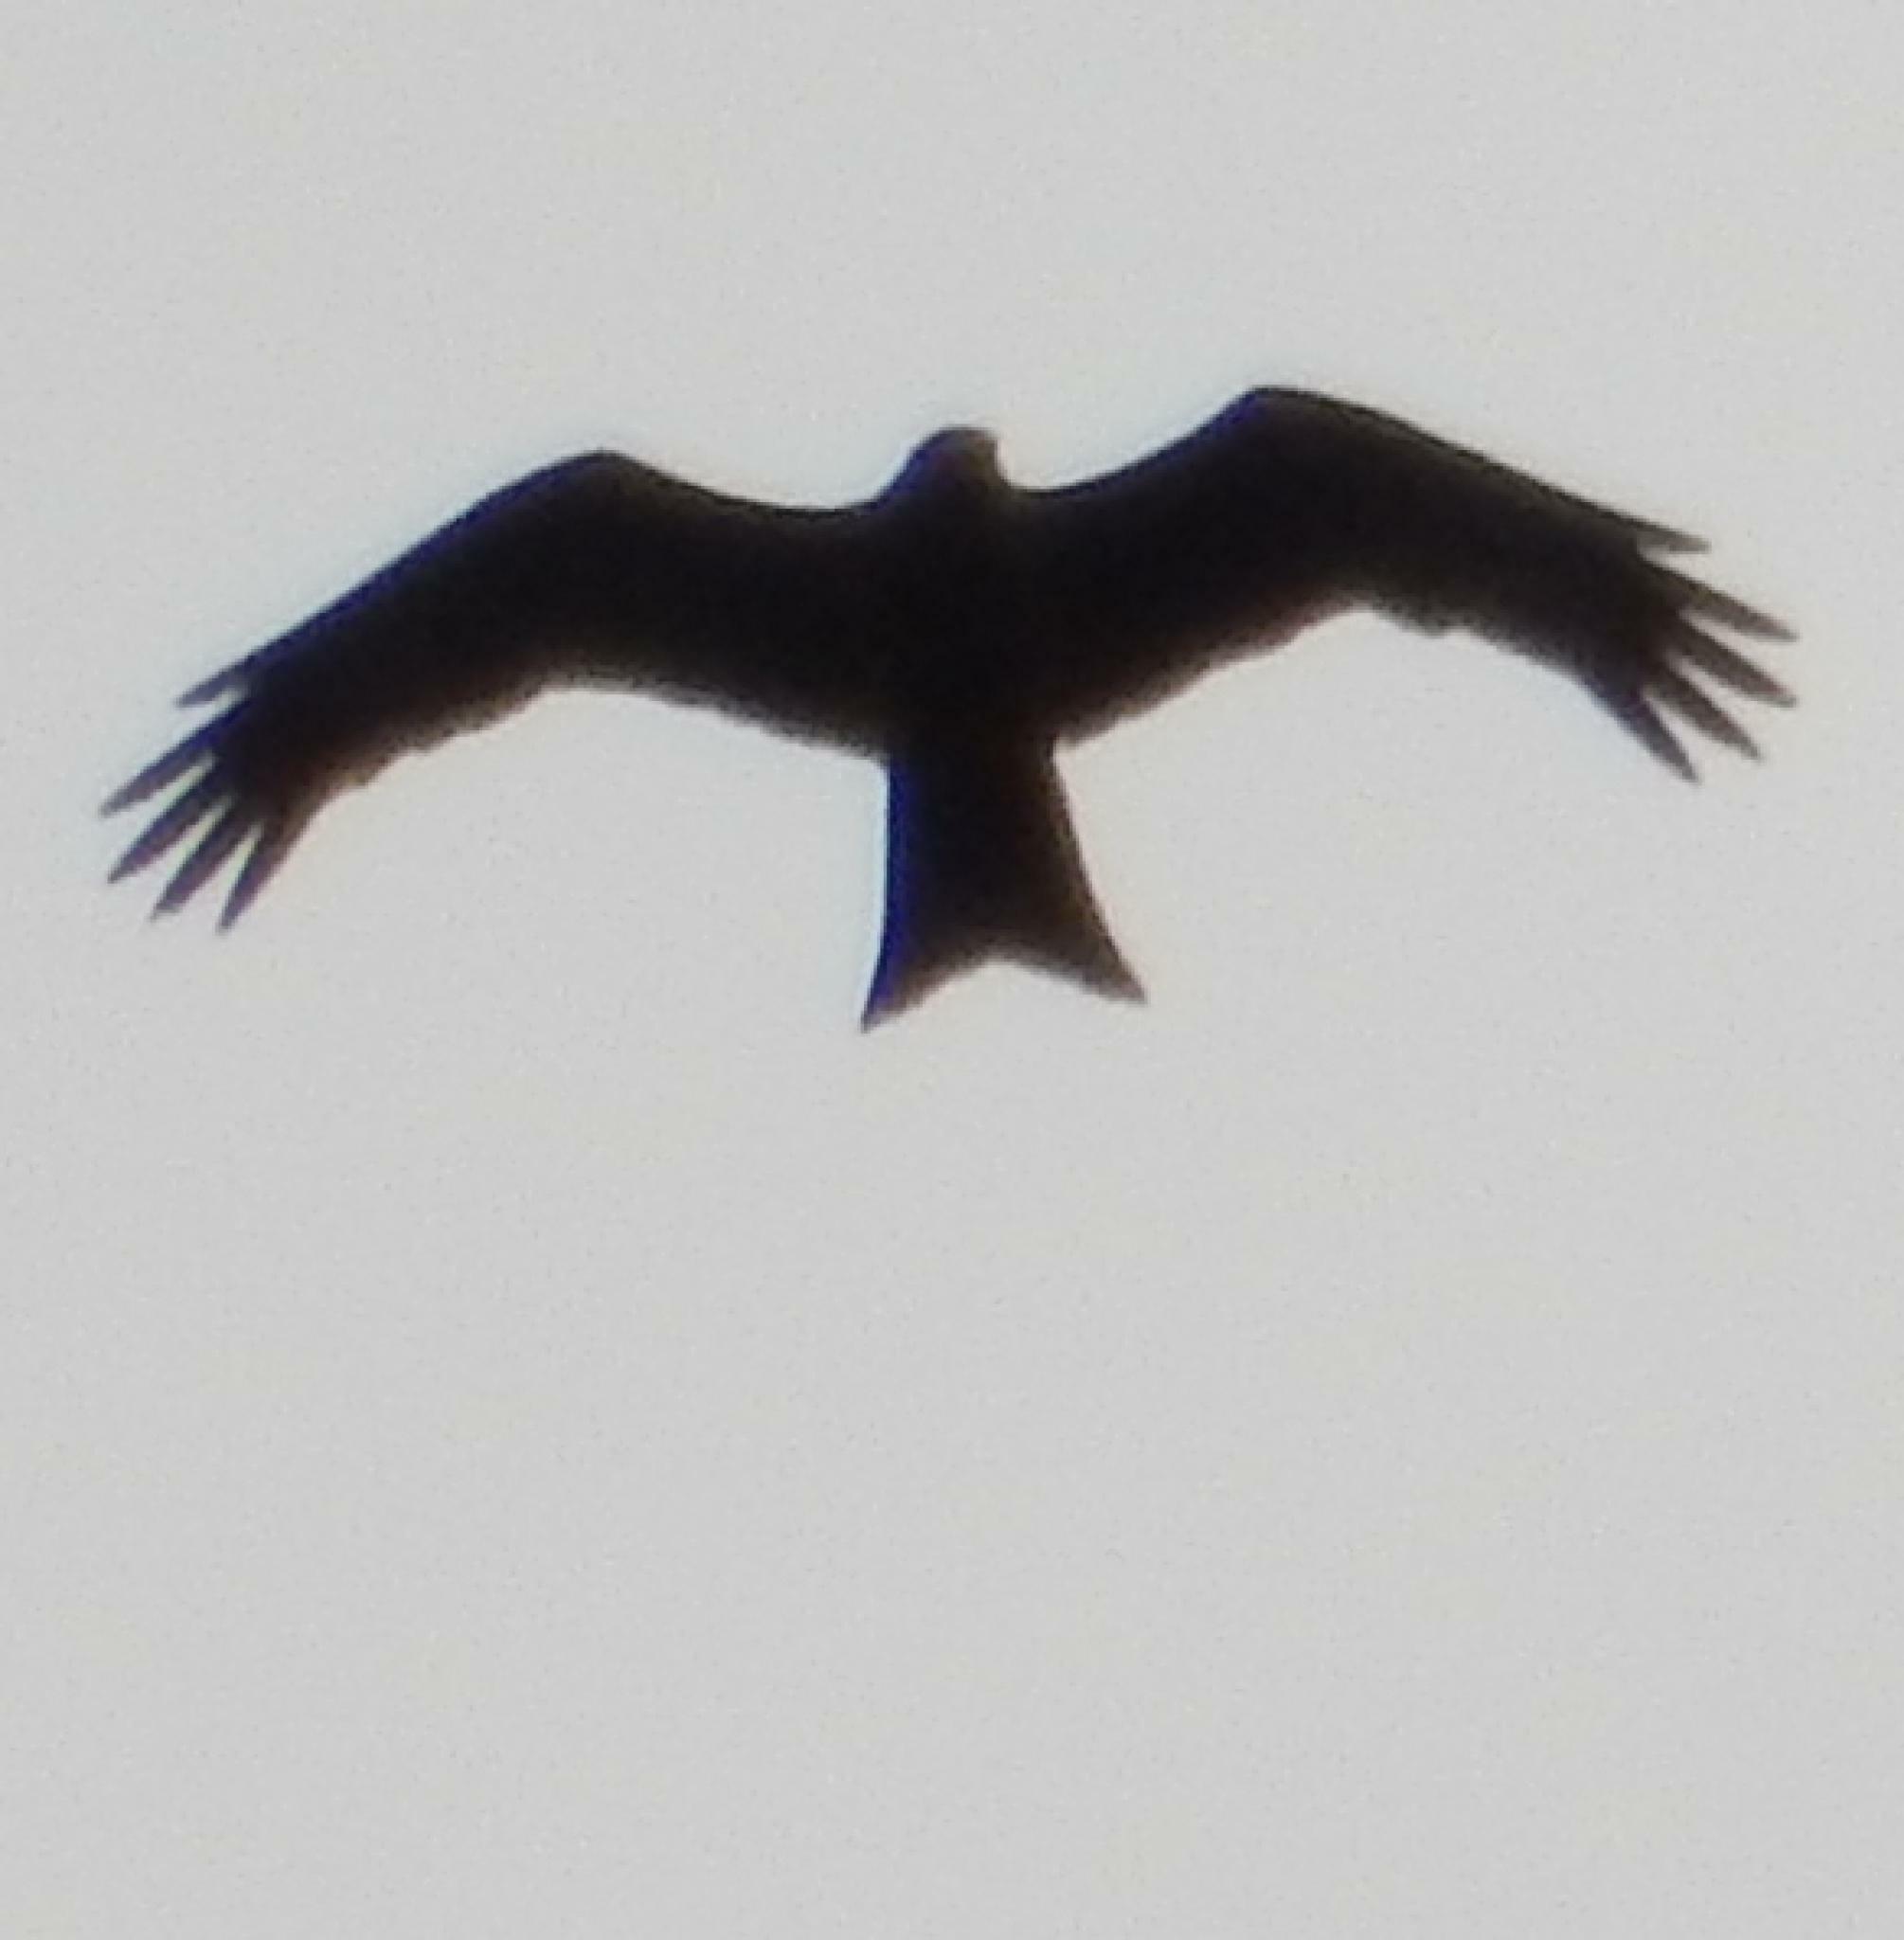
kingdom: Animalia
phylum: Chordata
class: Aves
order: Accipitriformes
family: Accipitridae
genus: Milvus
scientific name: Milvus migrans
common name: Black kite
